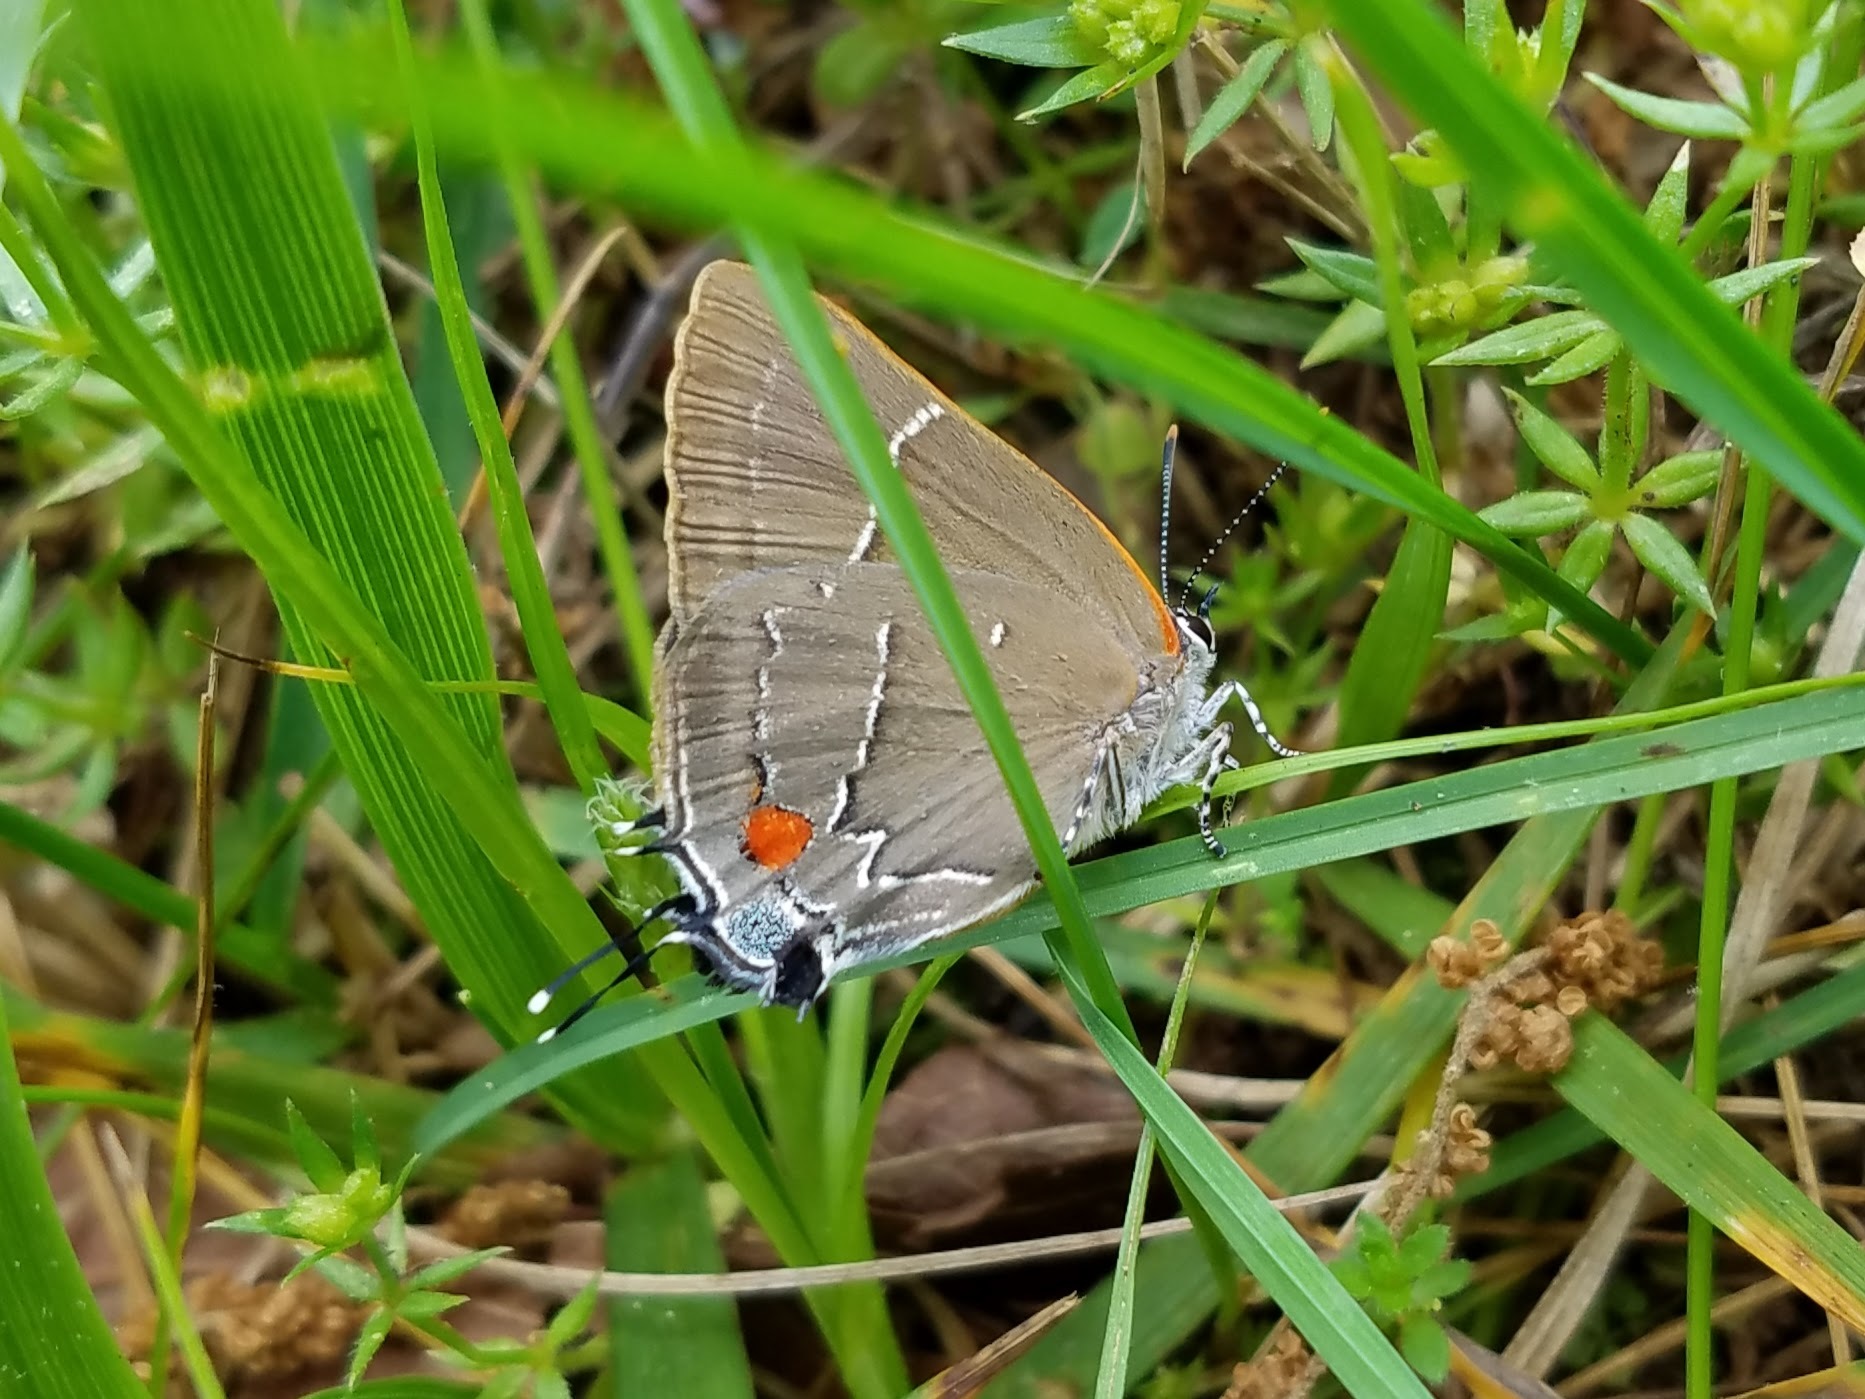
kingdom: Animalia
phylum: Arthropoda
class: Insecta
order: Lepidoptera
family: Lycaenidae
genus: Parrhasius
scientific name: Parrhasius m-album
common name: White m hairstreak
